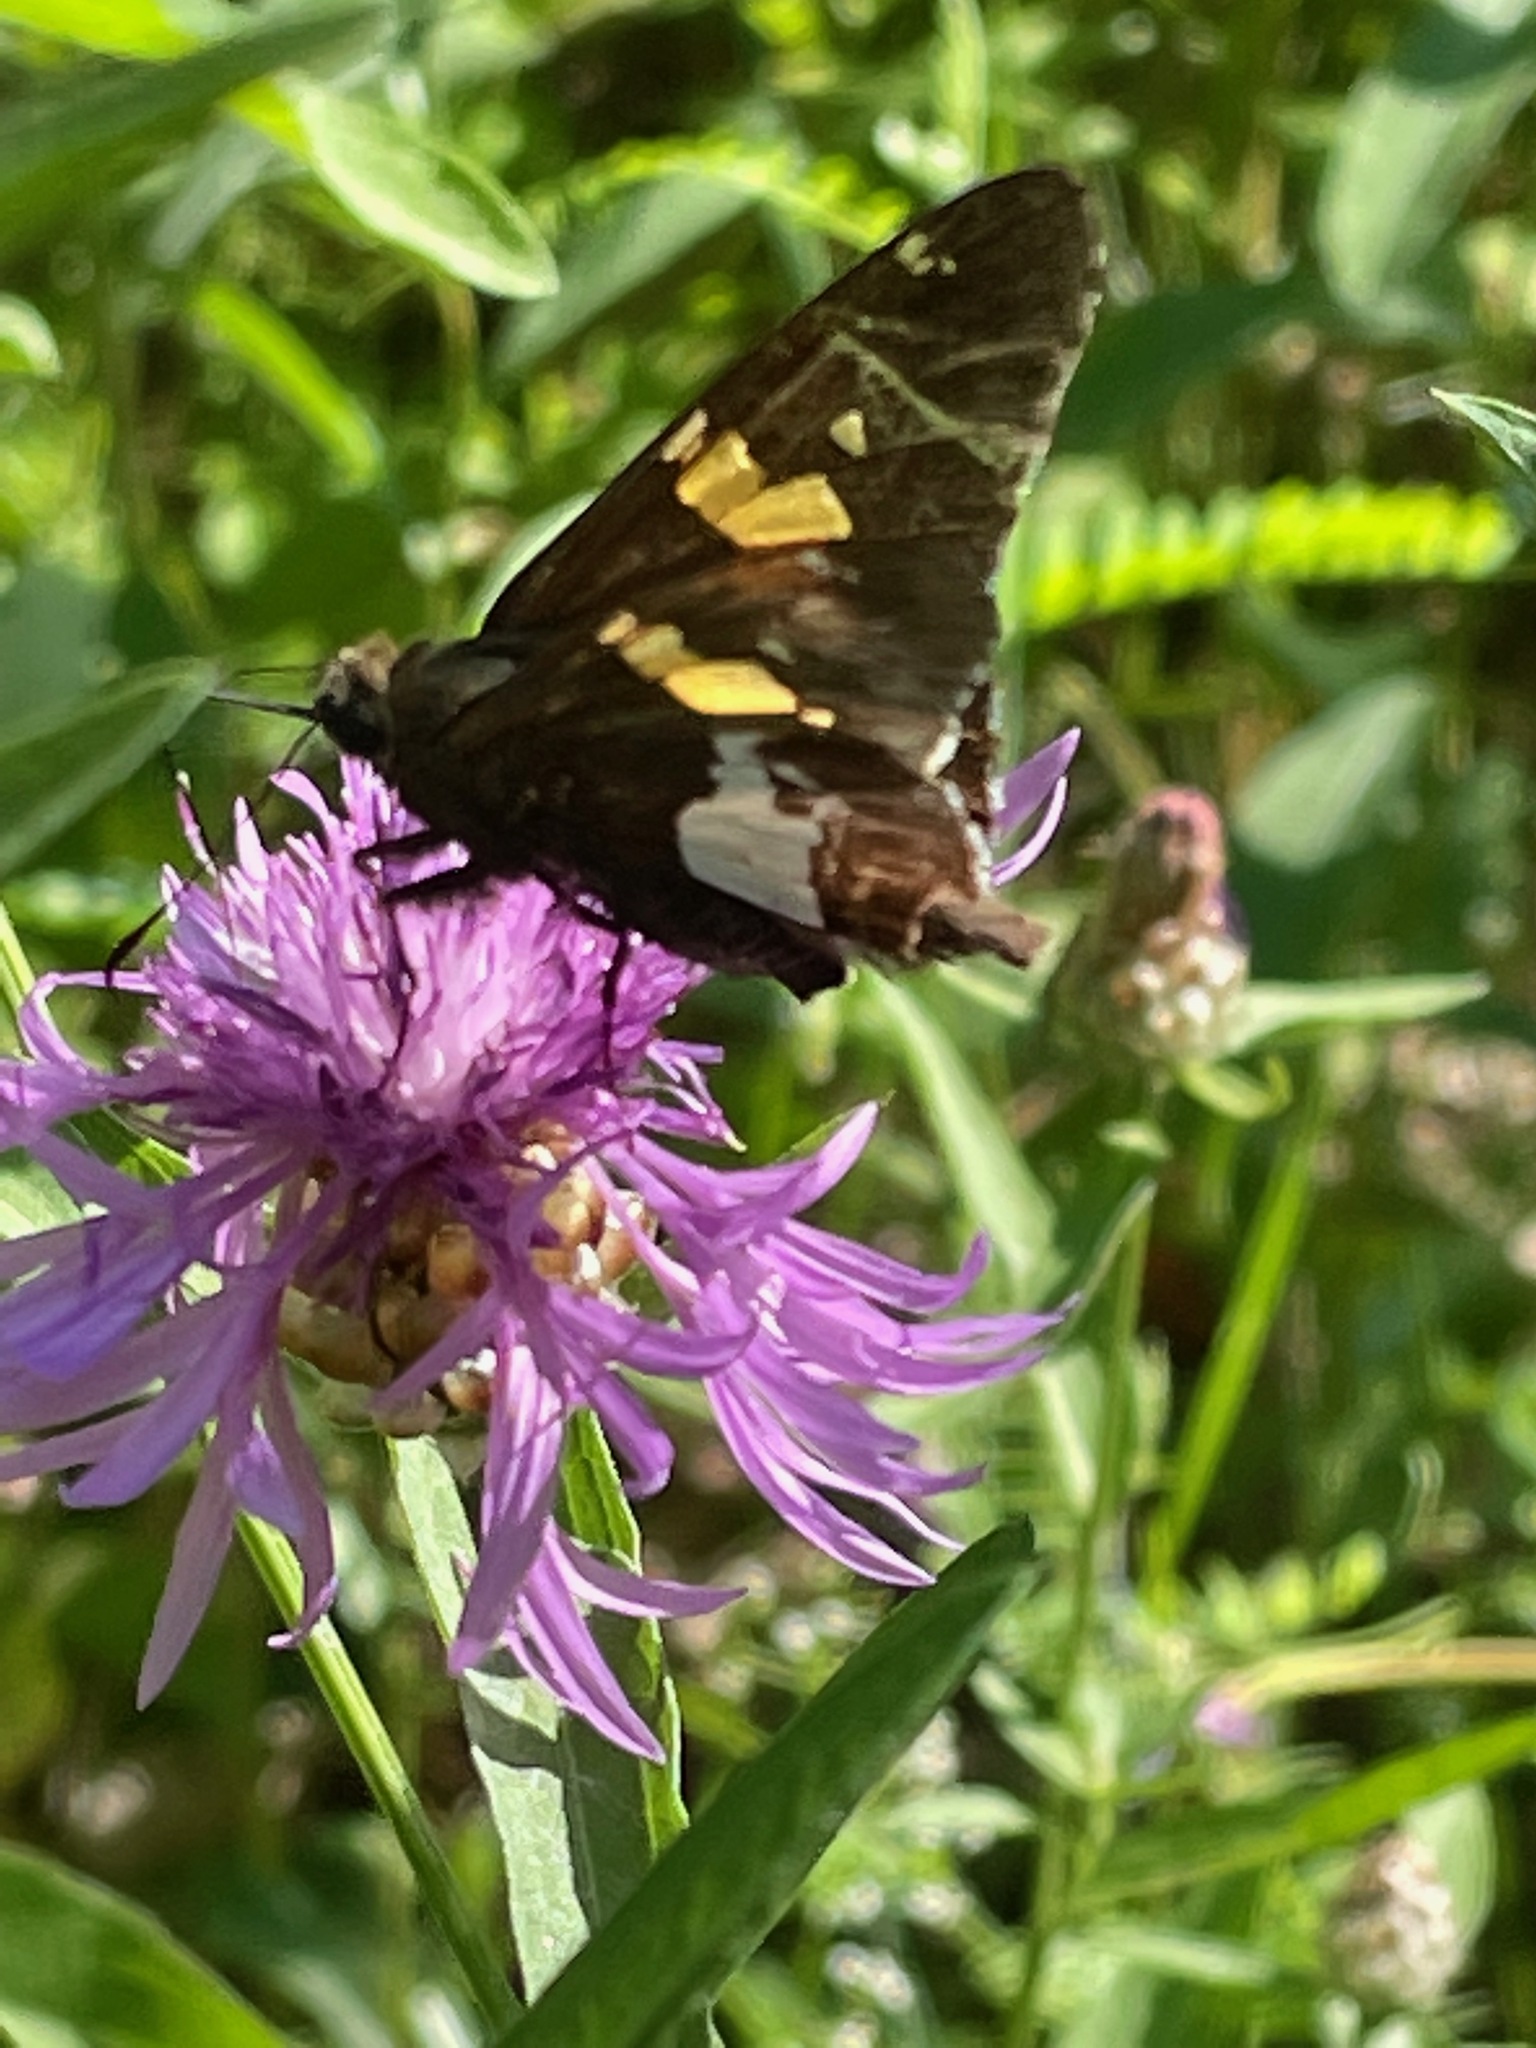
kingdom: Animalia
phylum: Arthropoda
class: Insecta
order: Lepidoptera
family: Hesperiidae
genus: Epargyreus
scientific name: Epargyreus clarus
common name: Silver-spotted skipper
